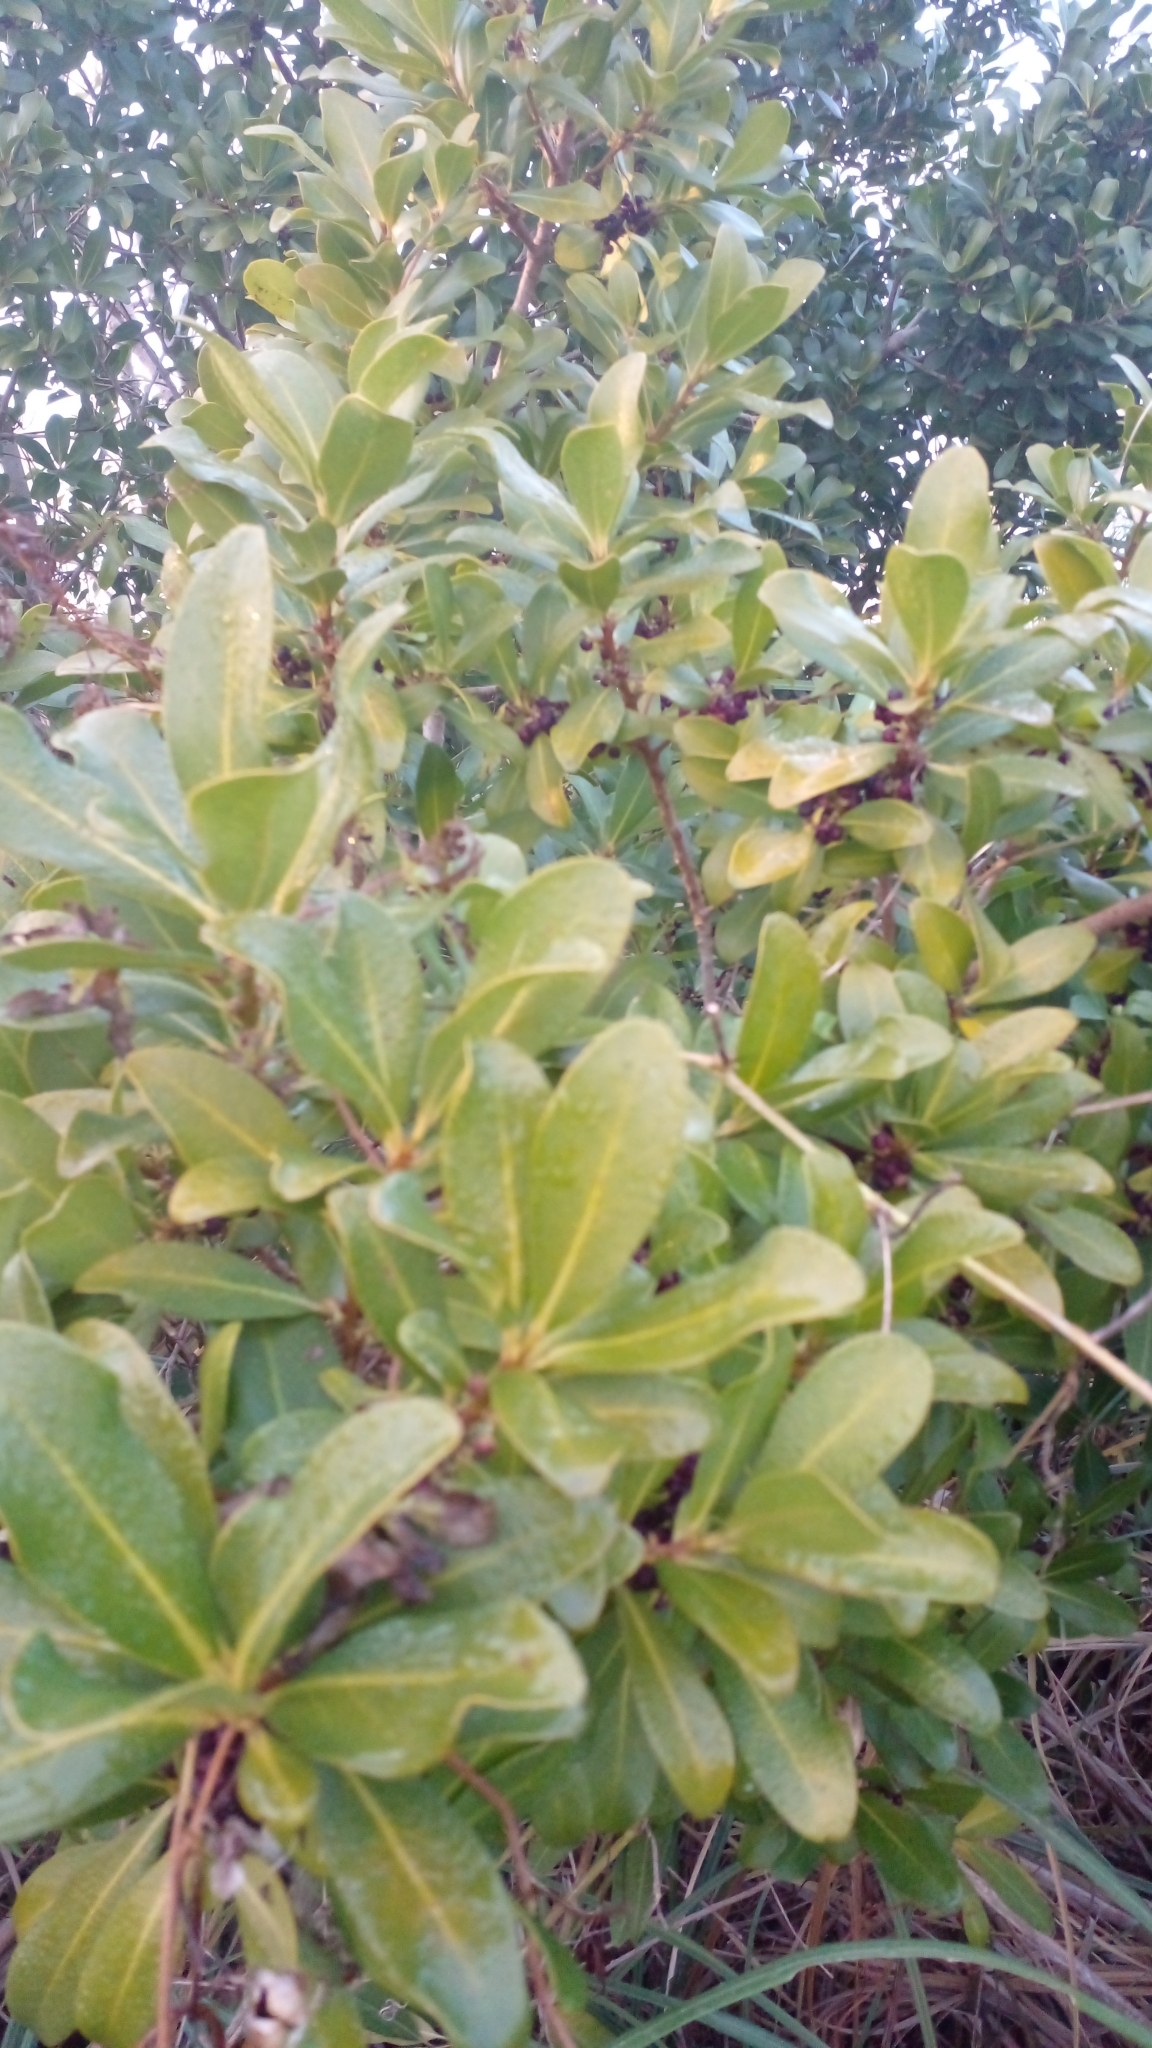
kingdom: Plantae
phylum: Tracheophyta
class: Magnoliopsida
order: Ericales
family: Primulaceae
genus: Myrsine
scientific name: Myrsine laetevirens
